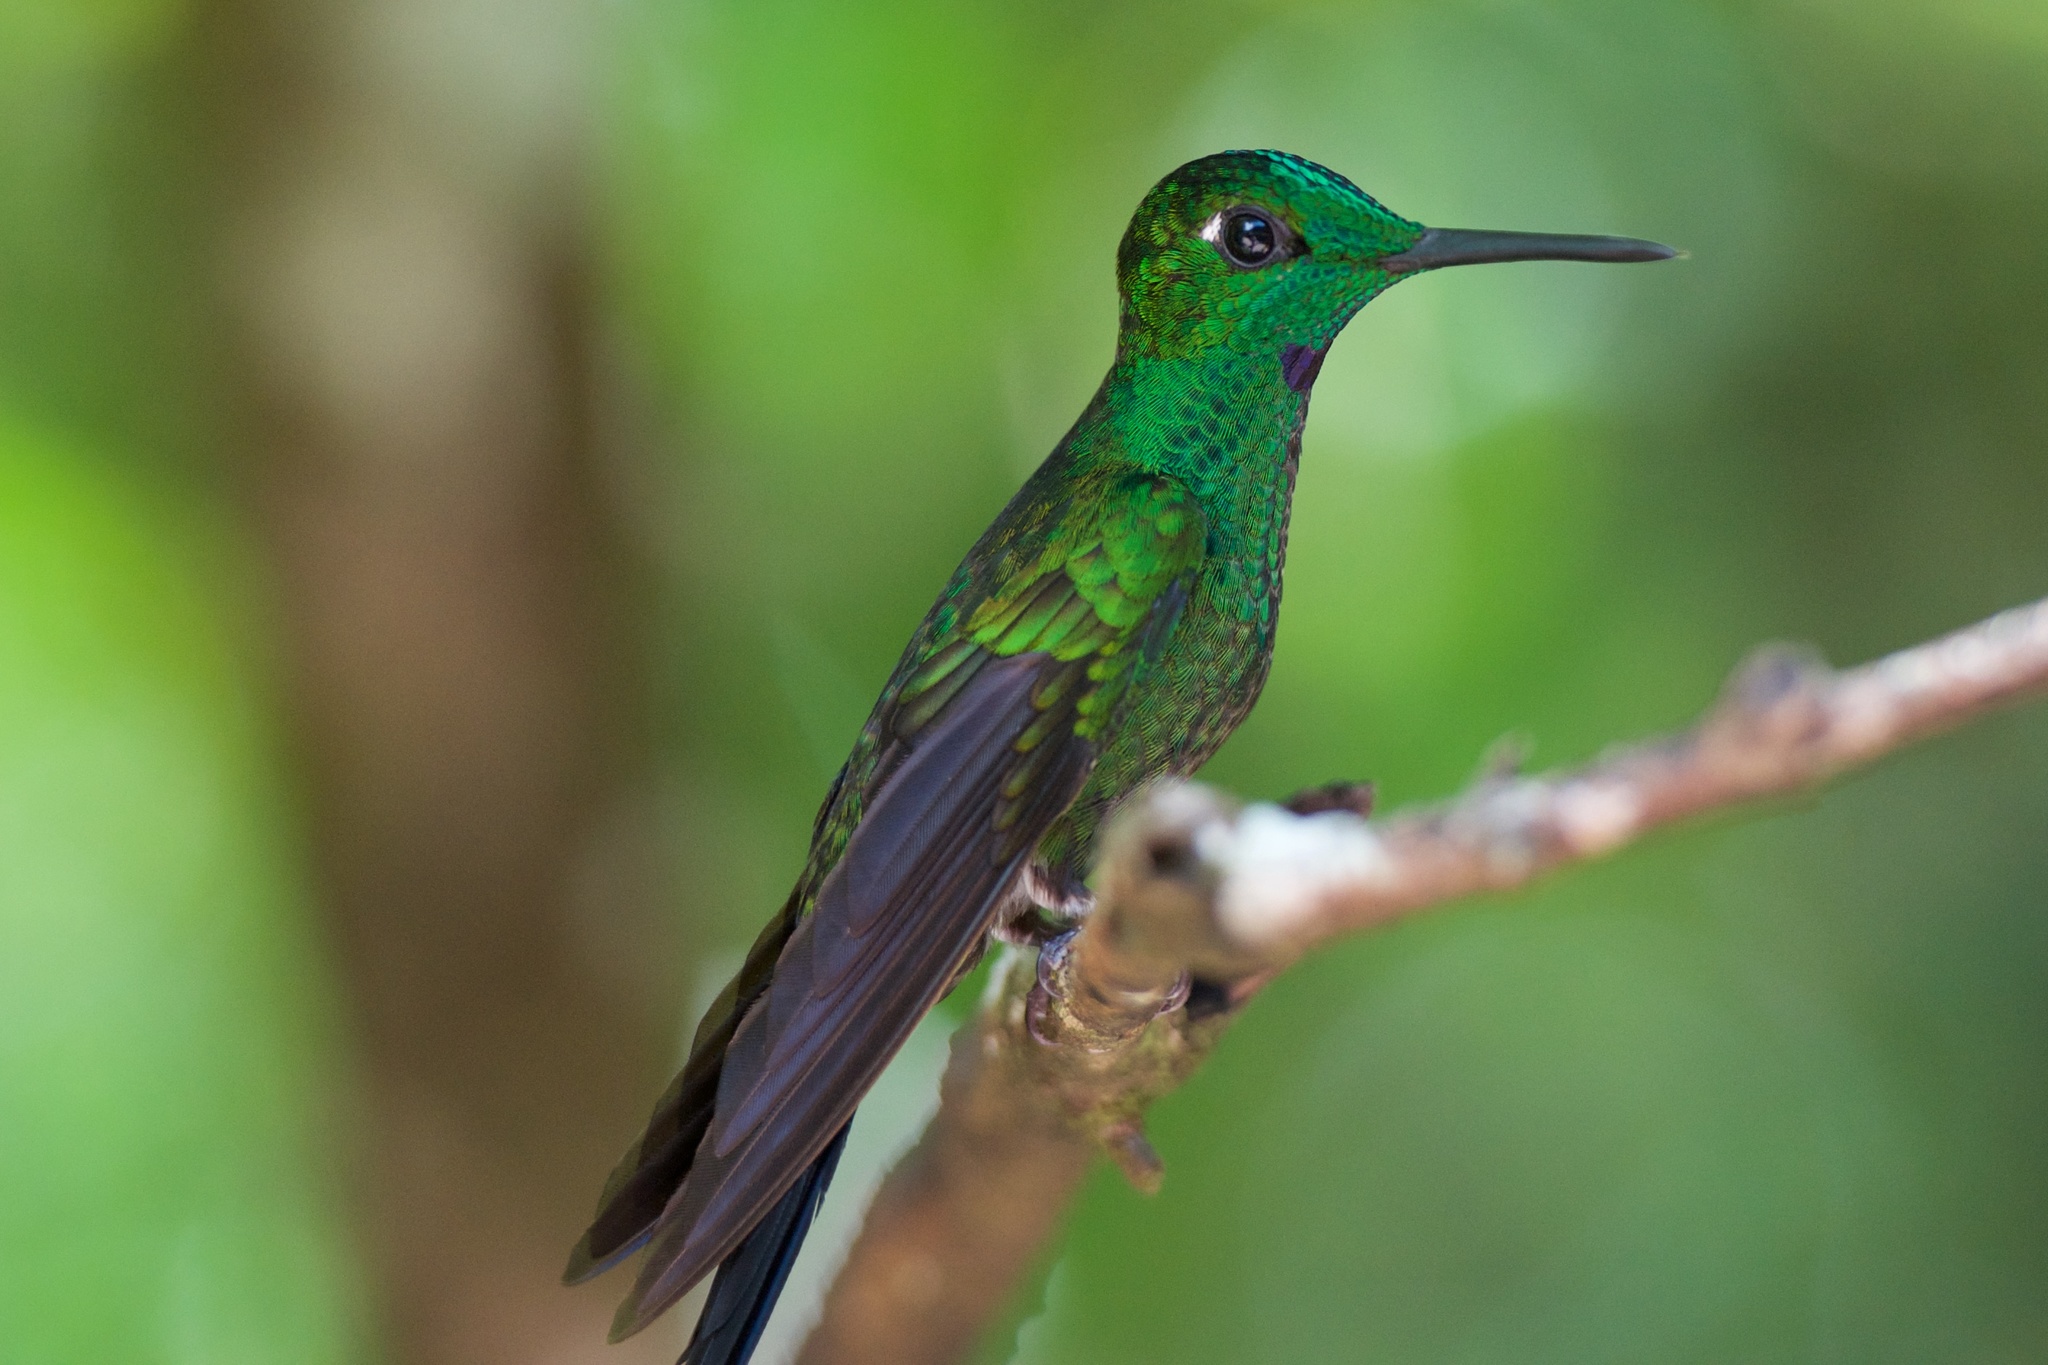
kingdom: Animalia
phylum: Chordata
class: Aves
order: Apodiformes
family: Trochilidae
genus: Heliodoxa
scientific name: Heliodoxa jacula
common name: Green-crowned brilliant
